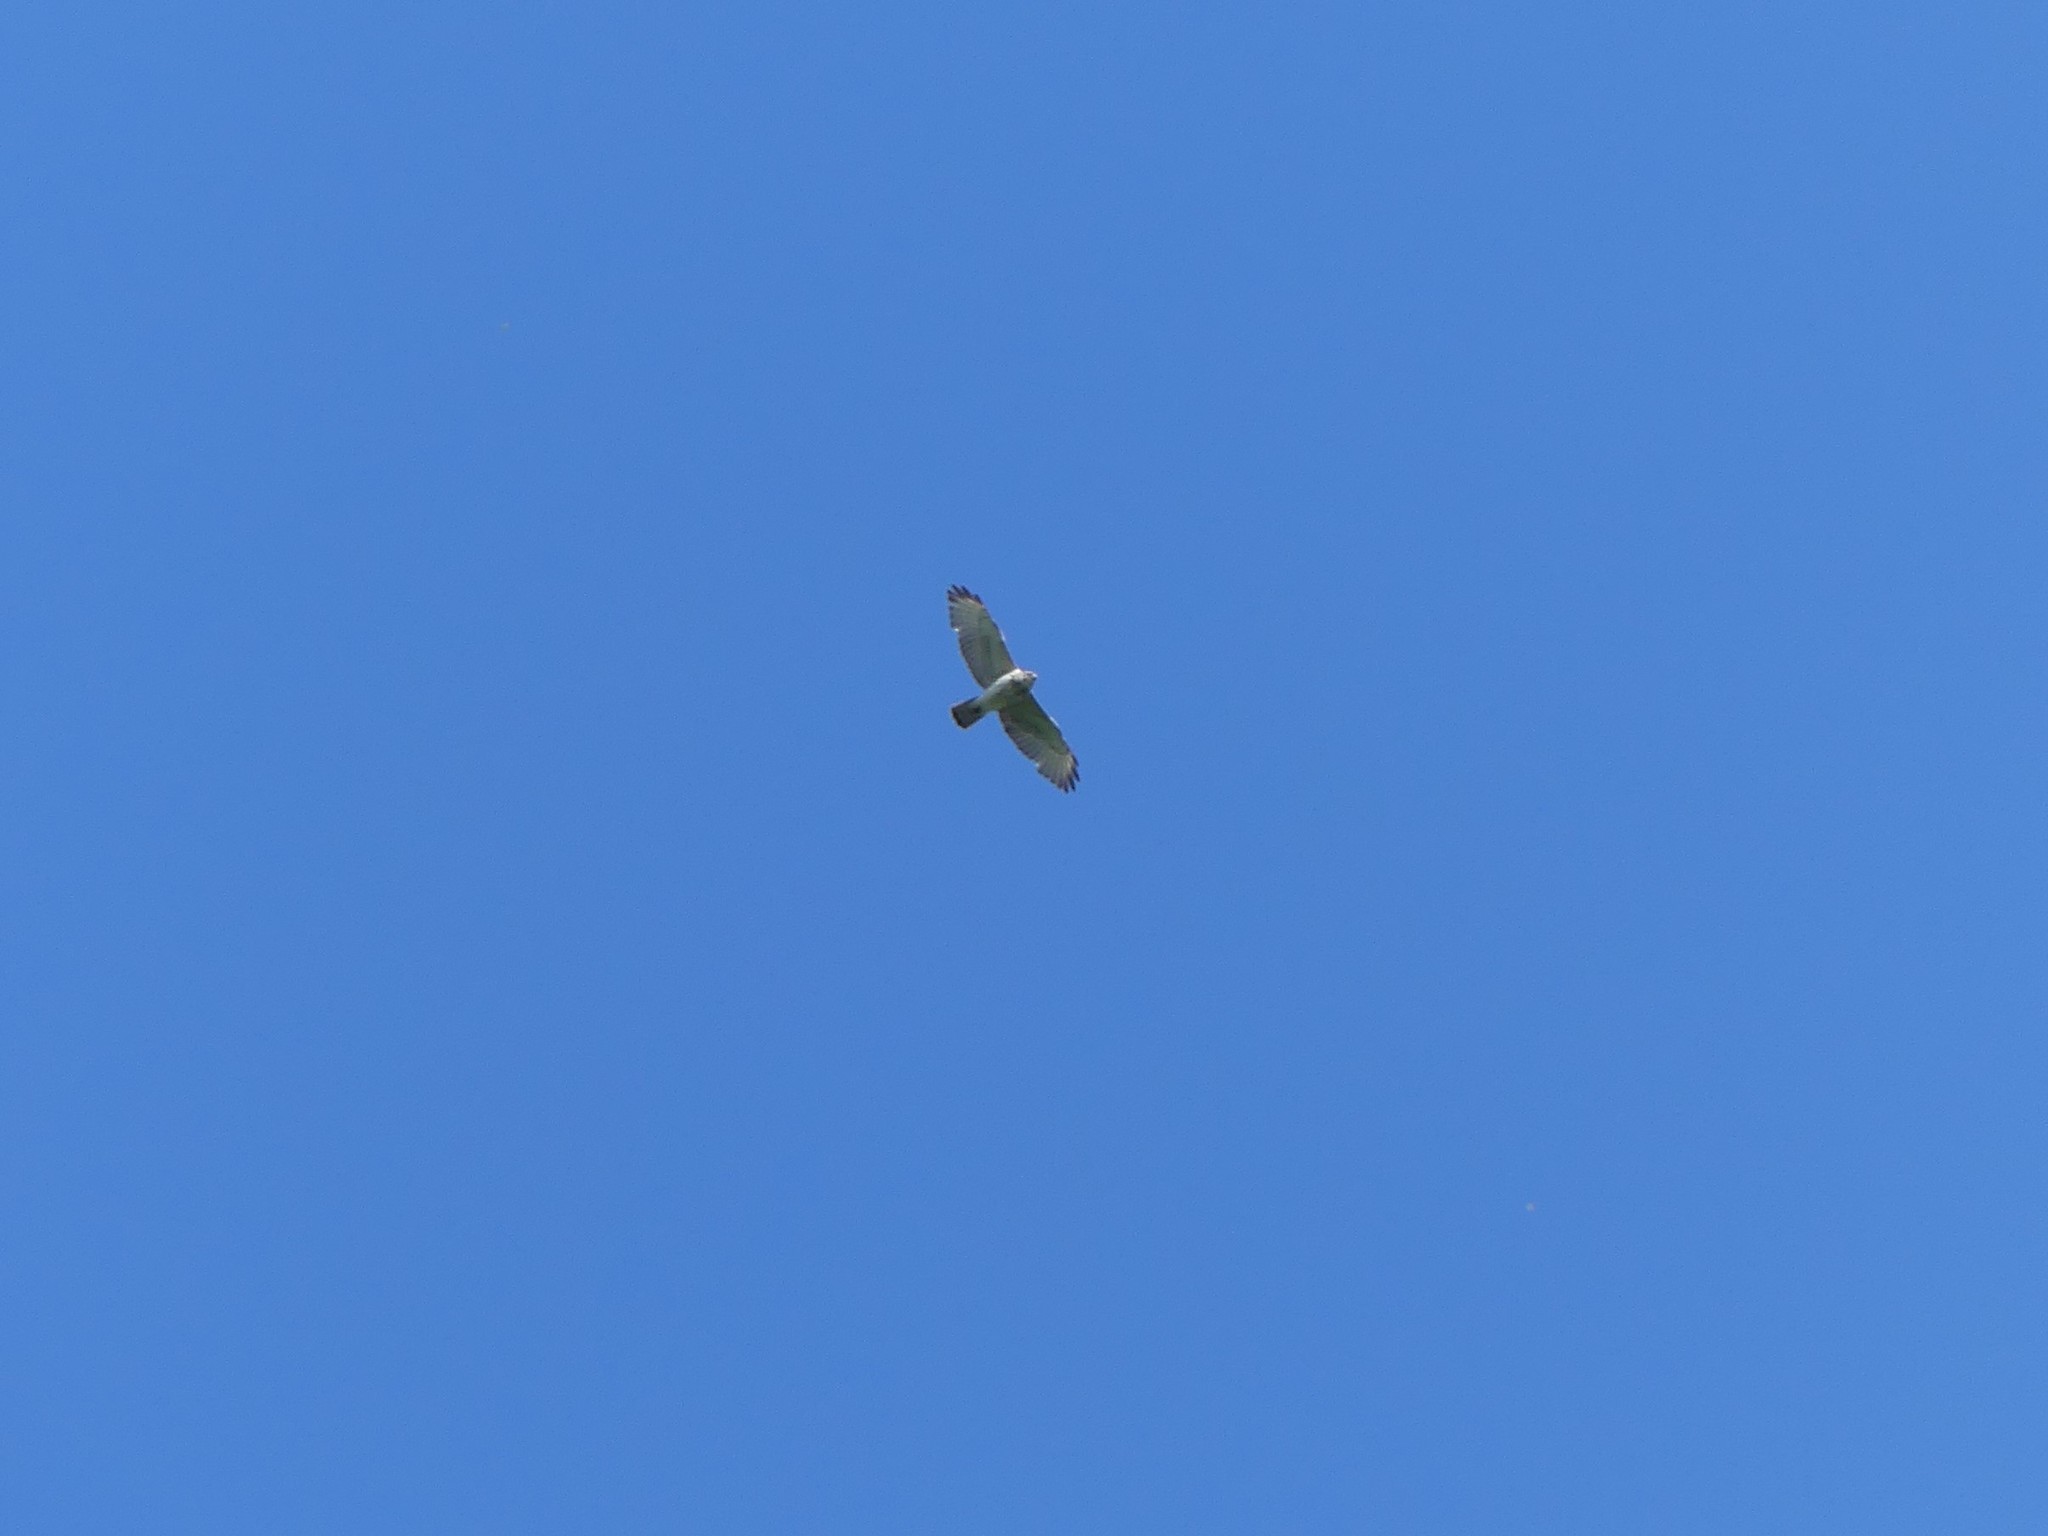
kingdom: Animalia
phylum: Chordata
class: Aves
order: Accipitriformes
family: Accipitridae
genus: Buteo
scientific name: Buteo platypterus
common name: Broad-winged hawk
